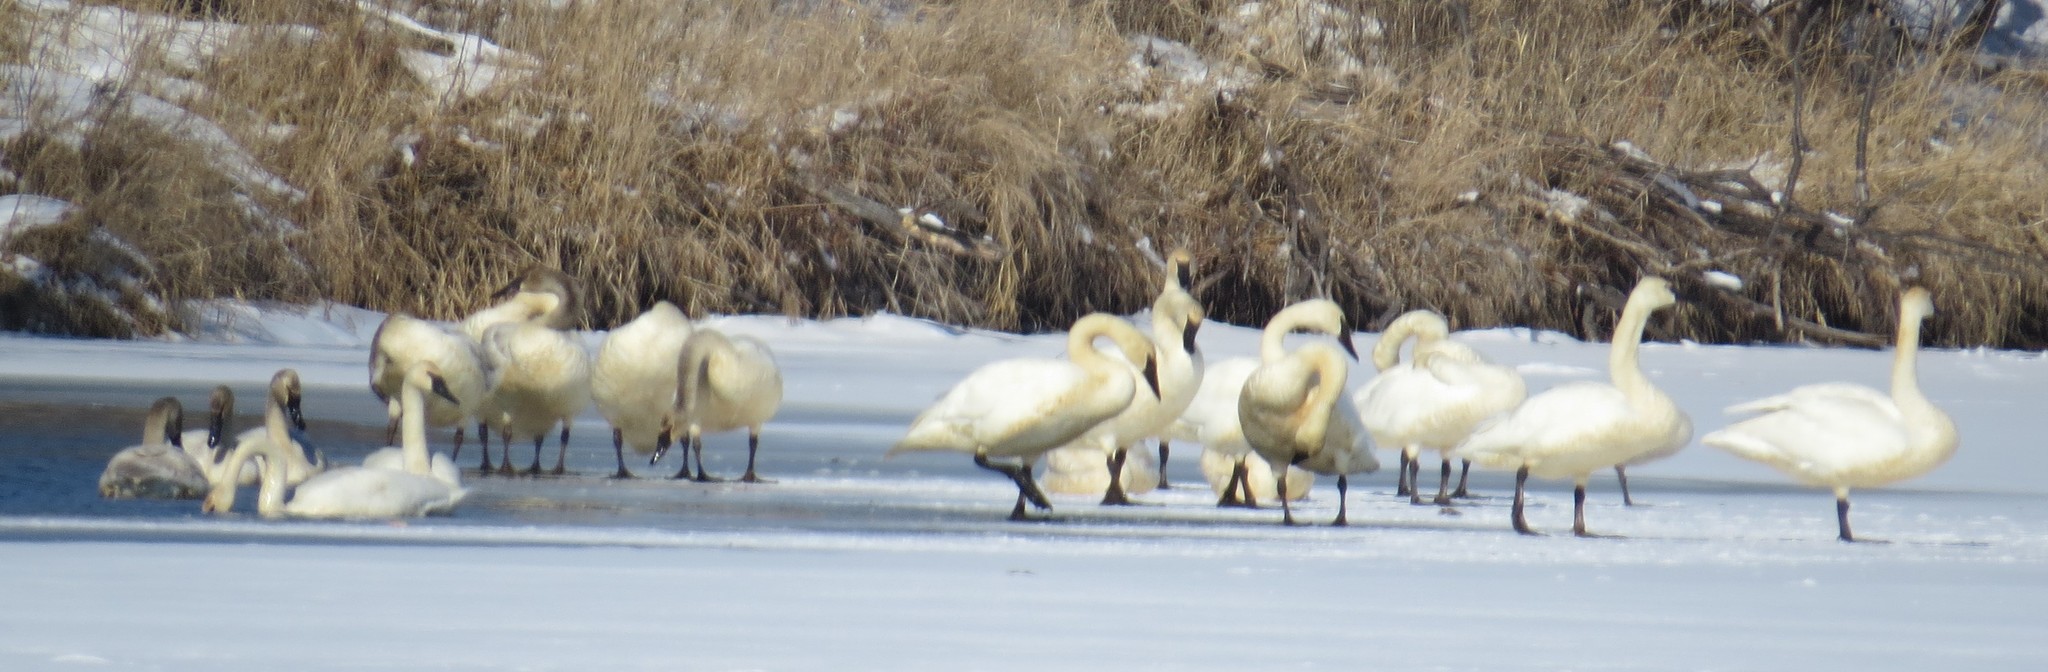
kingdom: Animalia
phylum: Chordata
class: Aves
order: Anseriformes
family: Anatidae
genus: Cygnus
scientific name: Cygnus buccinator
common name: Trumpeter swan
